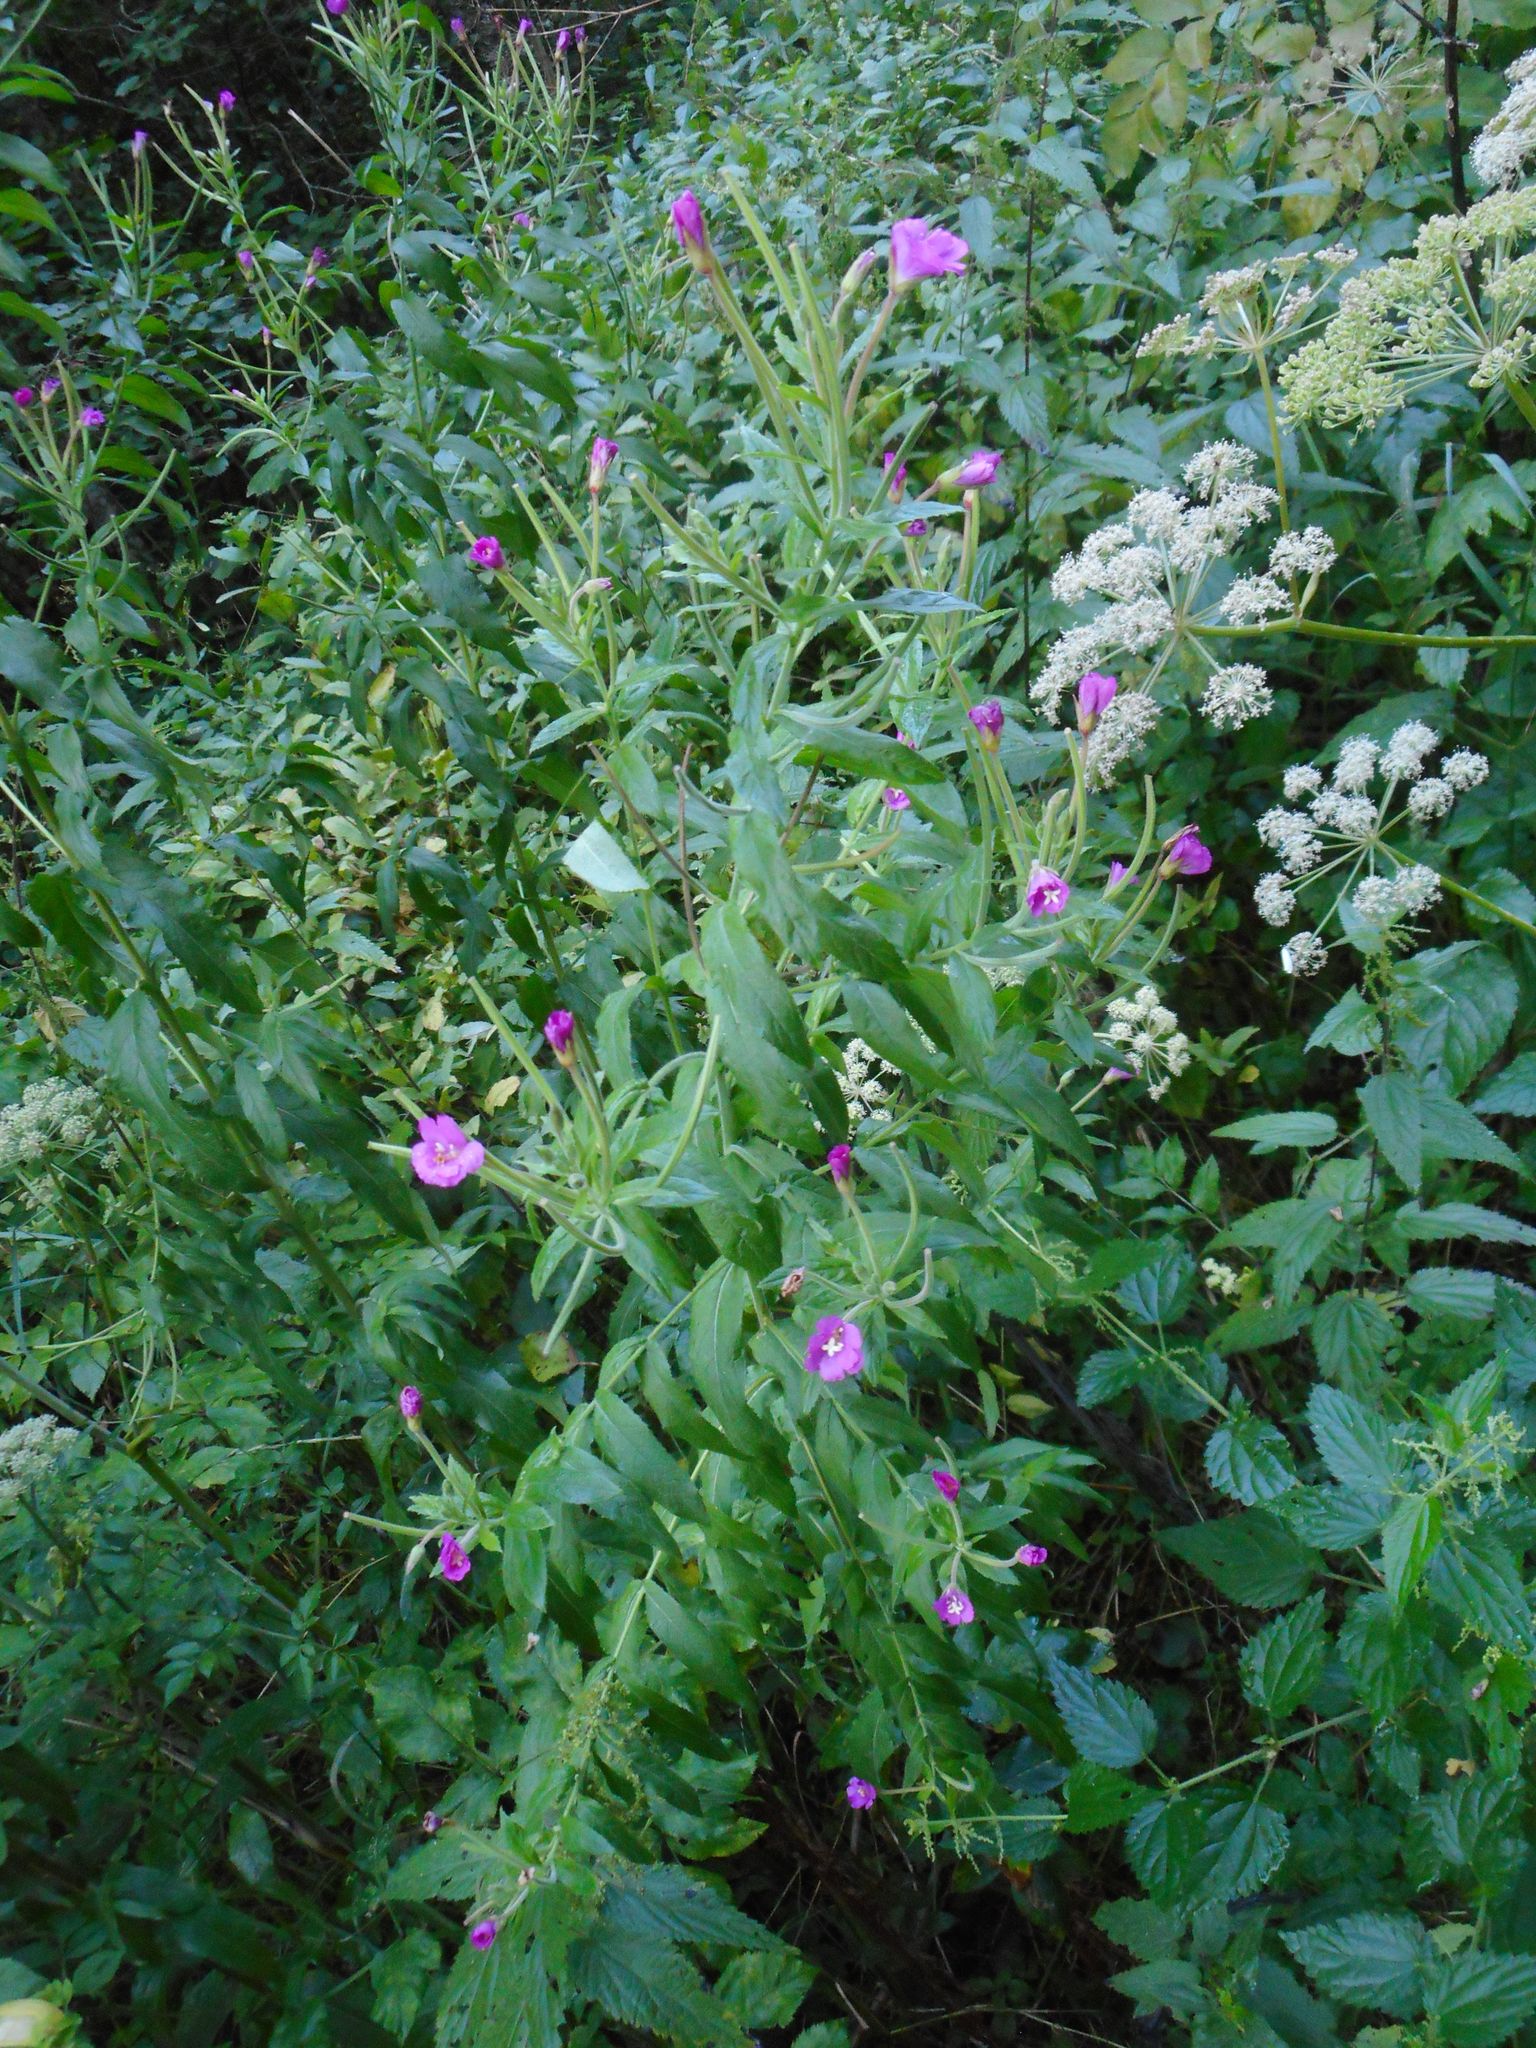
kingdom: Plantae
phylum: Tracheophyta
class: Magnoliopsida
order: Myrtales
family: Onagraceae
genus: Epilobium
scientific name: Epilobium hirsutum
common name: Great willowherb
